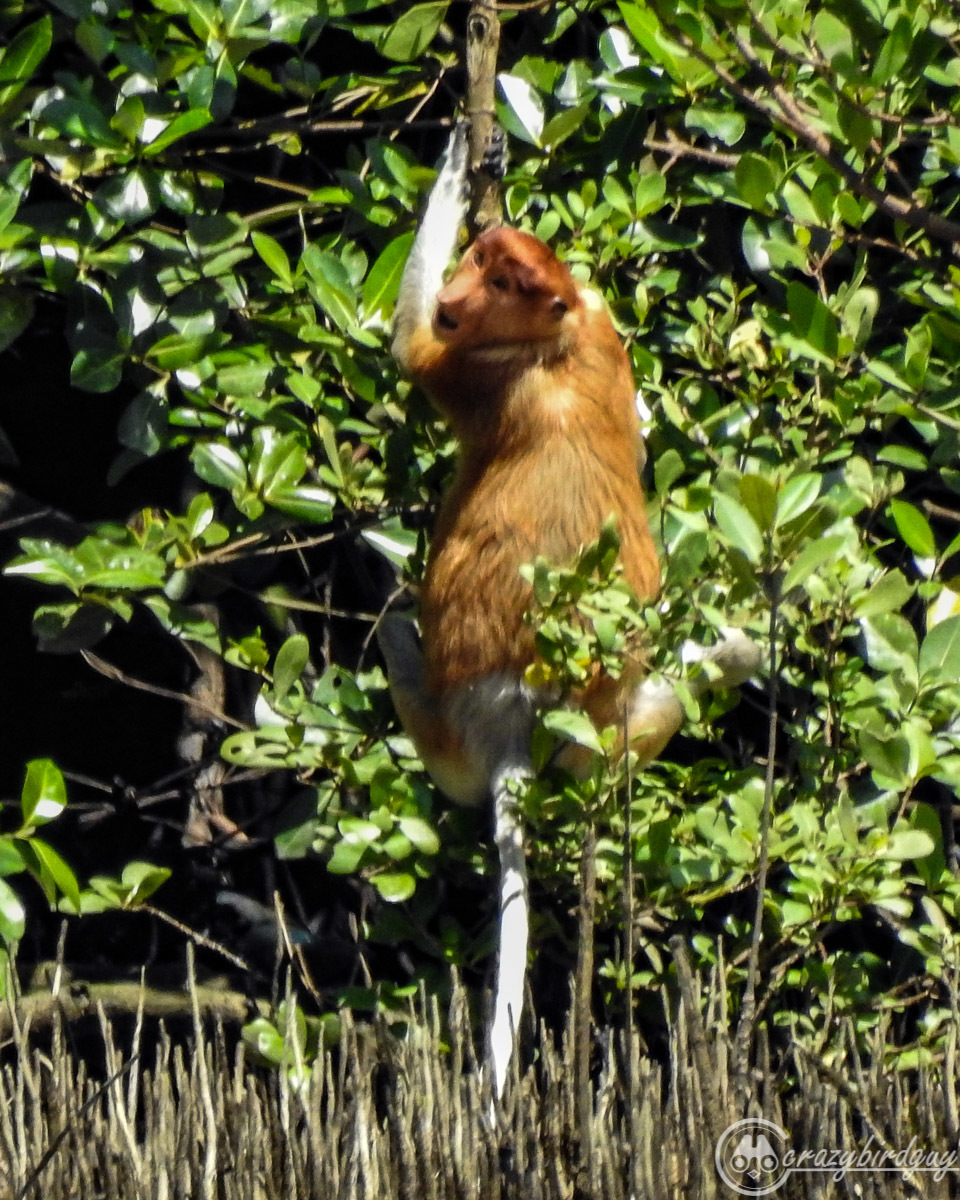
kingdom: Animalia
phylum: Chordata
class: Mammalia
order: Primates
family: Cercopithecidae
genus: Nasalis
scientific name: Nasalis larvatus
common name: Proboscis monkey
